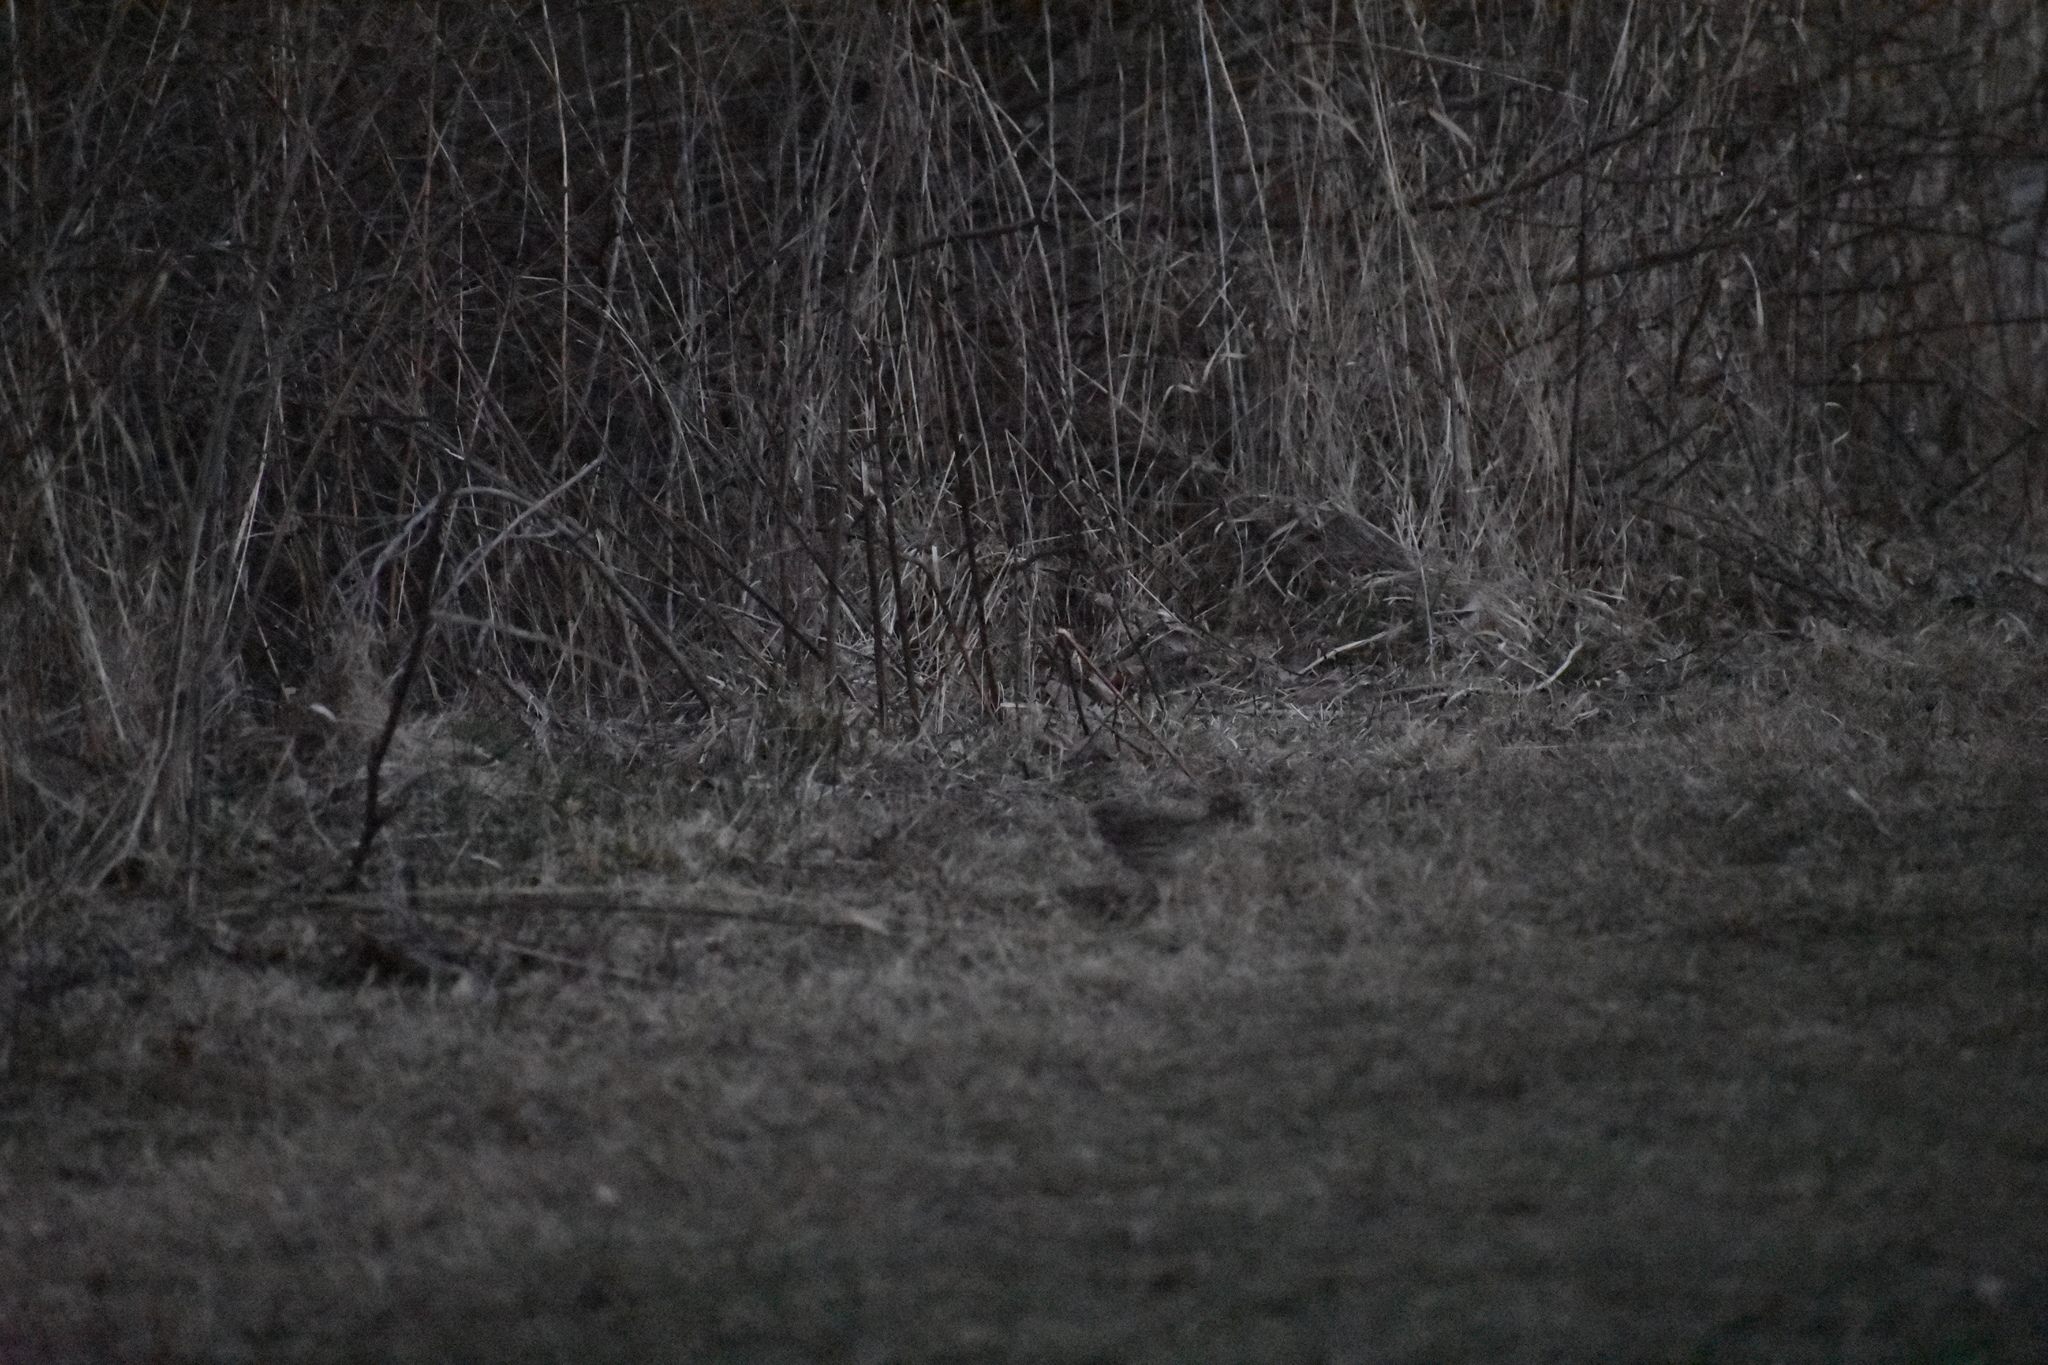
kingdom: Animalia
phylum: Chordata
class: Aves
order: Passeriformes
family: Passerellidae
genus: Melospiza
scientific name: Melospiza melodia
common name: Song sparrow
